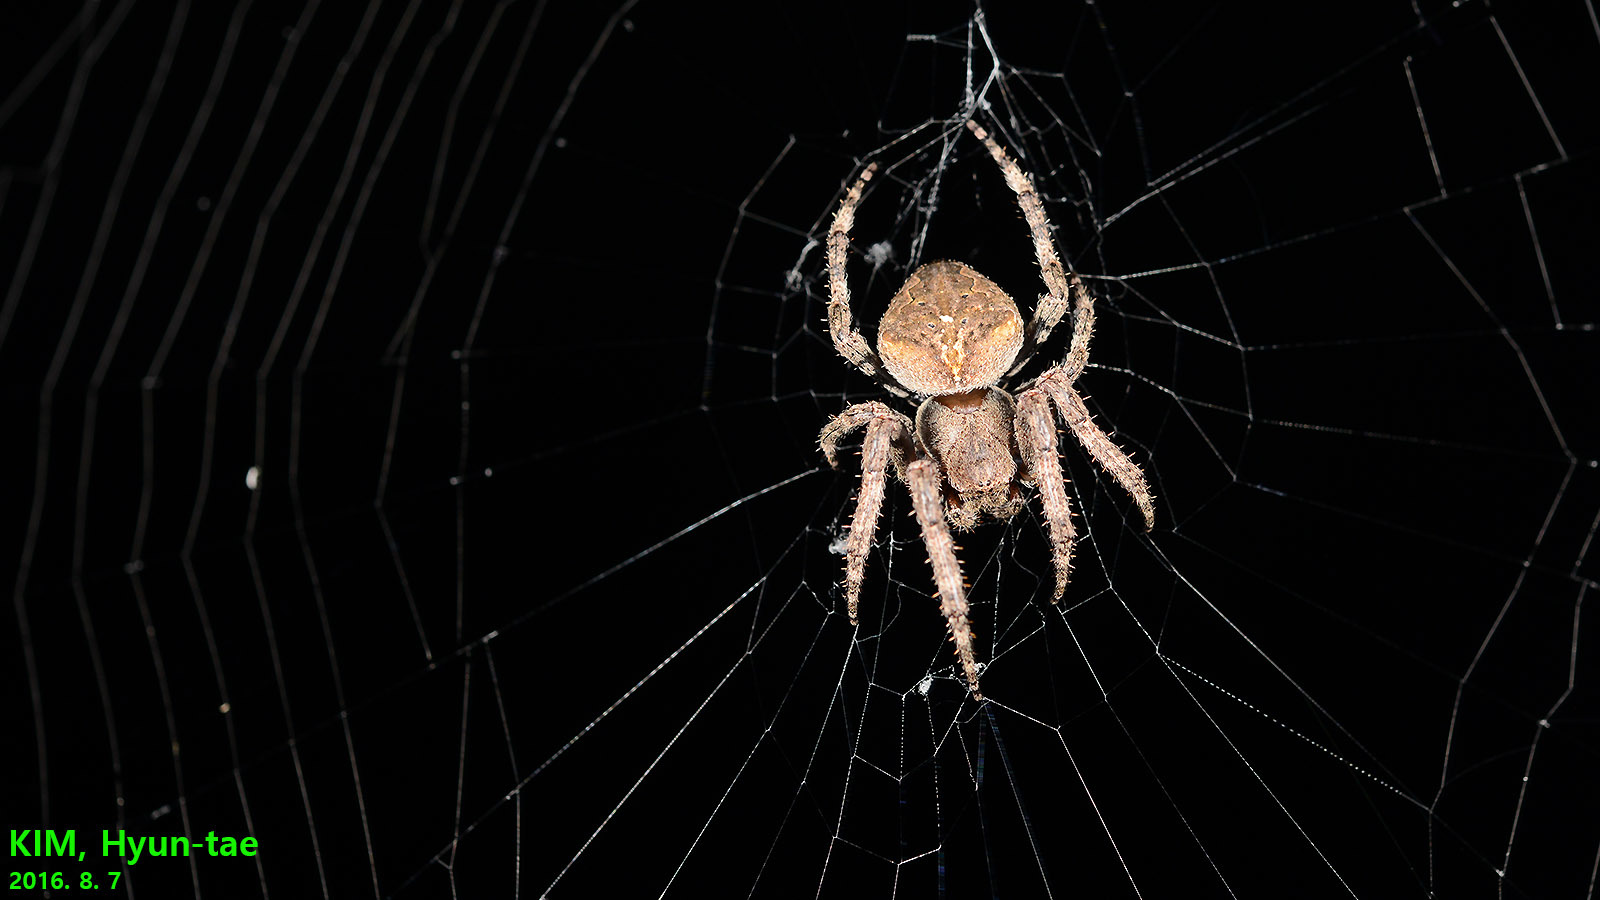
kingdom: Animalia
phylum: Arthropoda
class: Arachnida
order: Araneae
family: Araneidae
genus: Araneus
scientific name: Araneus ventricosus
